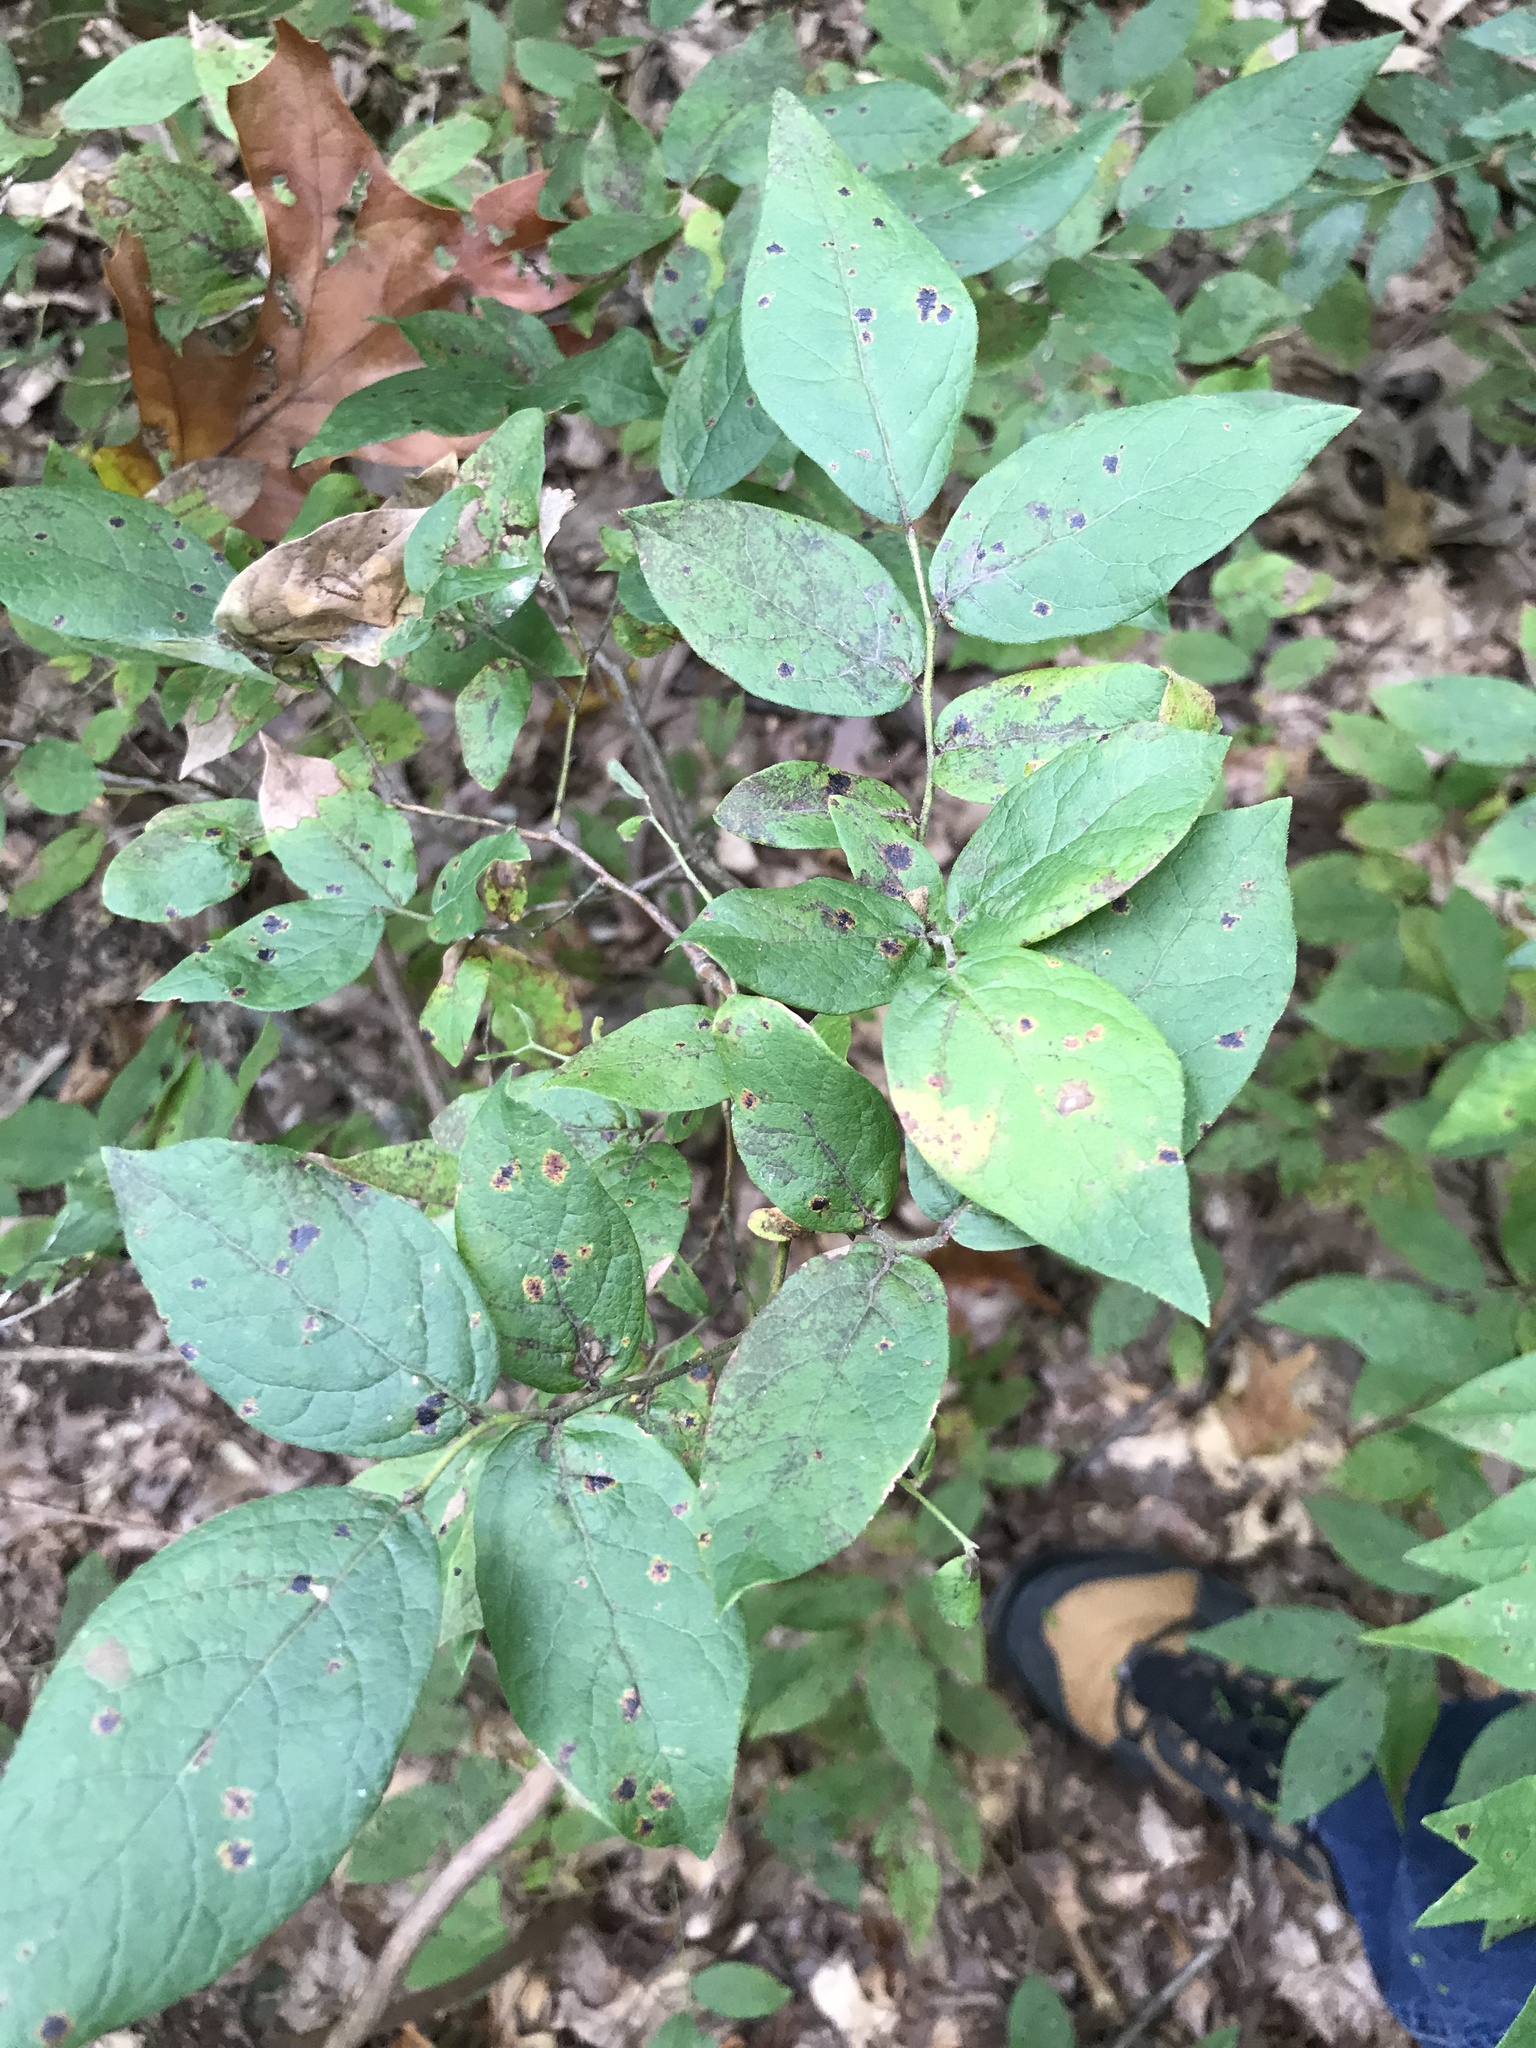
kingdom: Plantae
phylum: Tracheophyta
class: Magnoliopsida
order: Ericales
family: Ericaceae
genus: Vaccinium
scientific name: Vaccinium stamineum
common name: Deerberry
